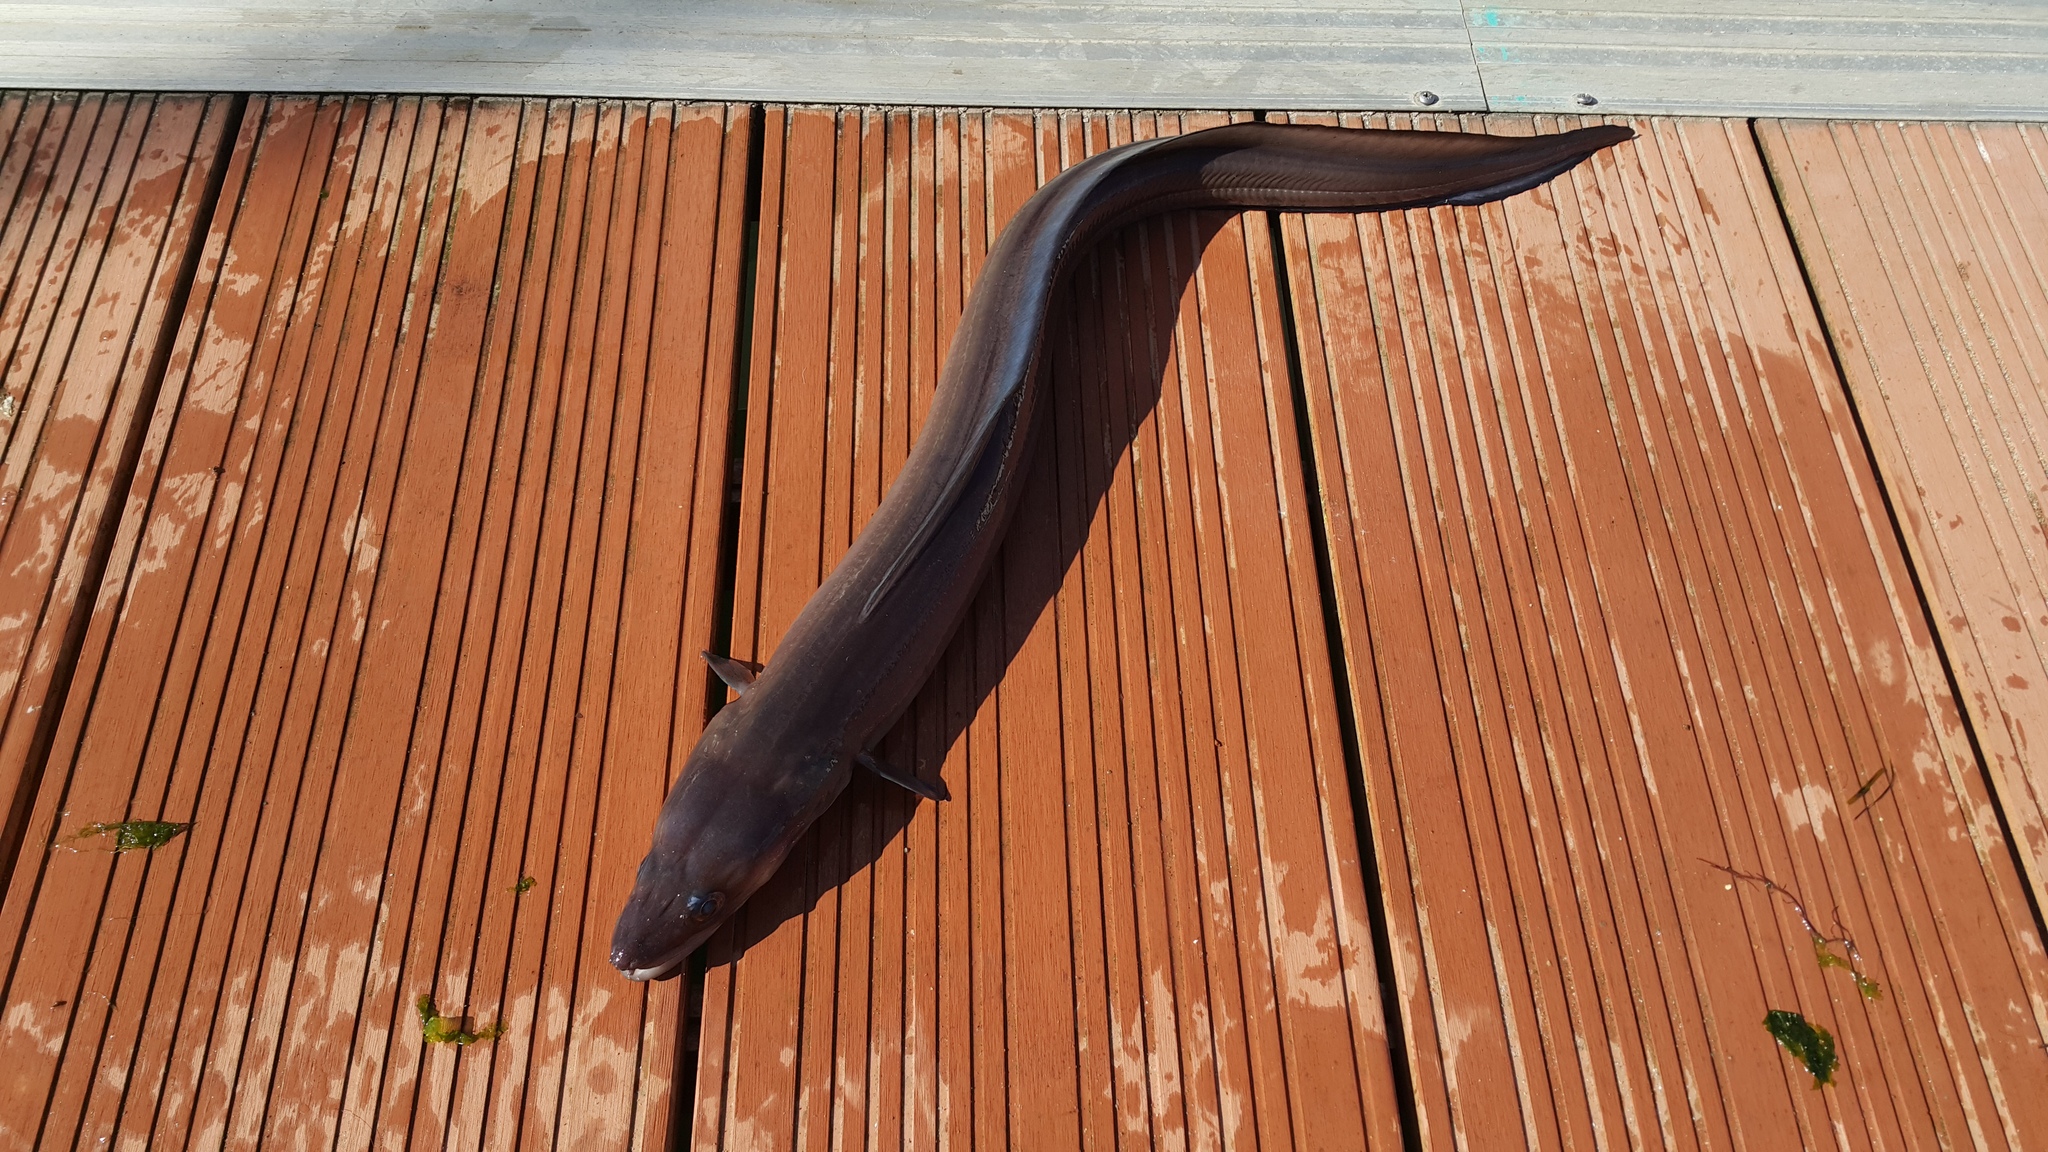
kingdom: Animalia
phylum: Chordata
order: Anguilliformes
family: Congridae
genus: Conger
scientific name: Conger conger
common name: Conger eel
